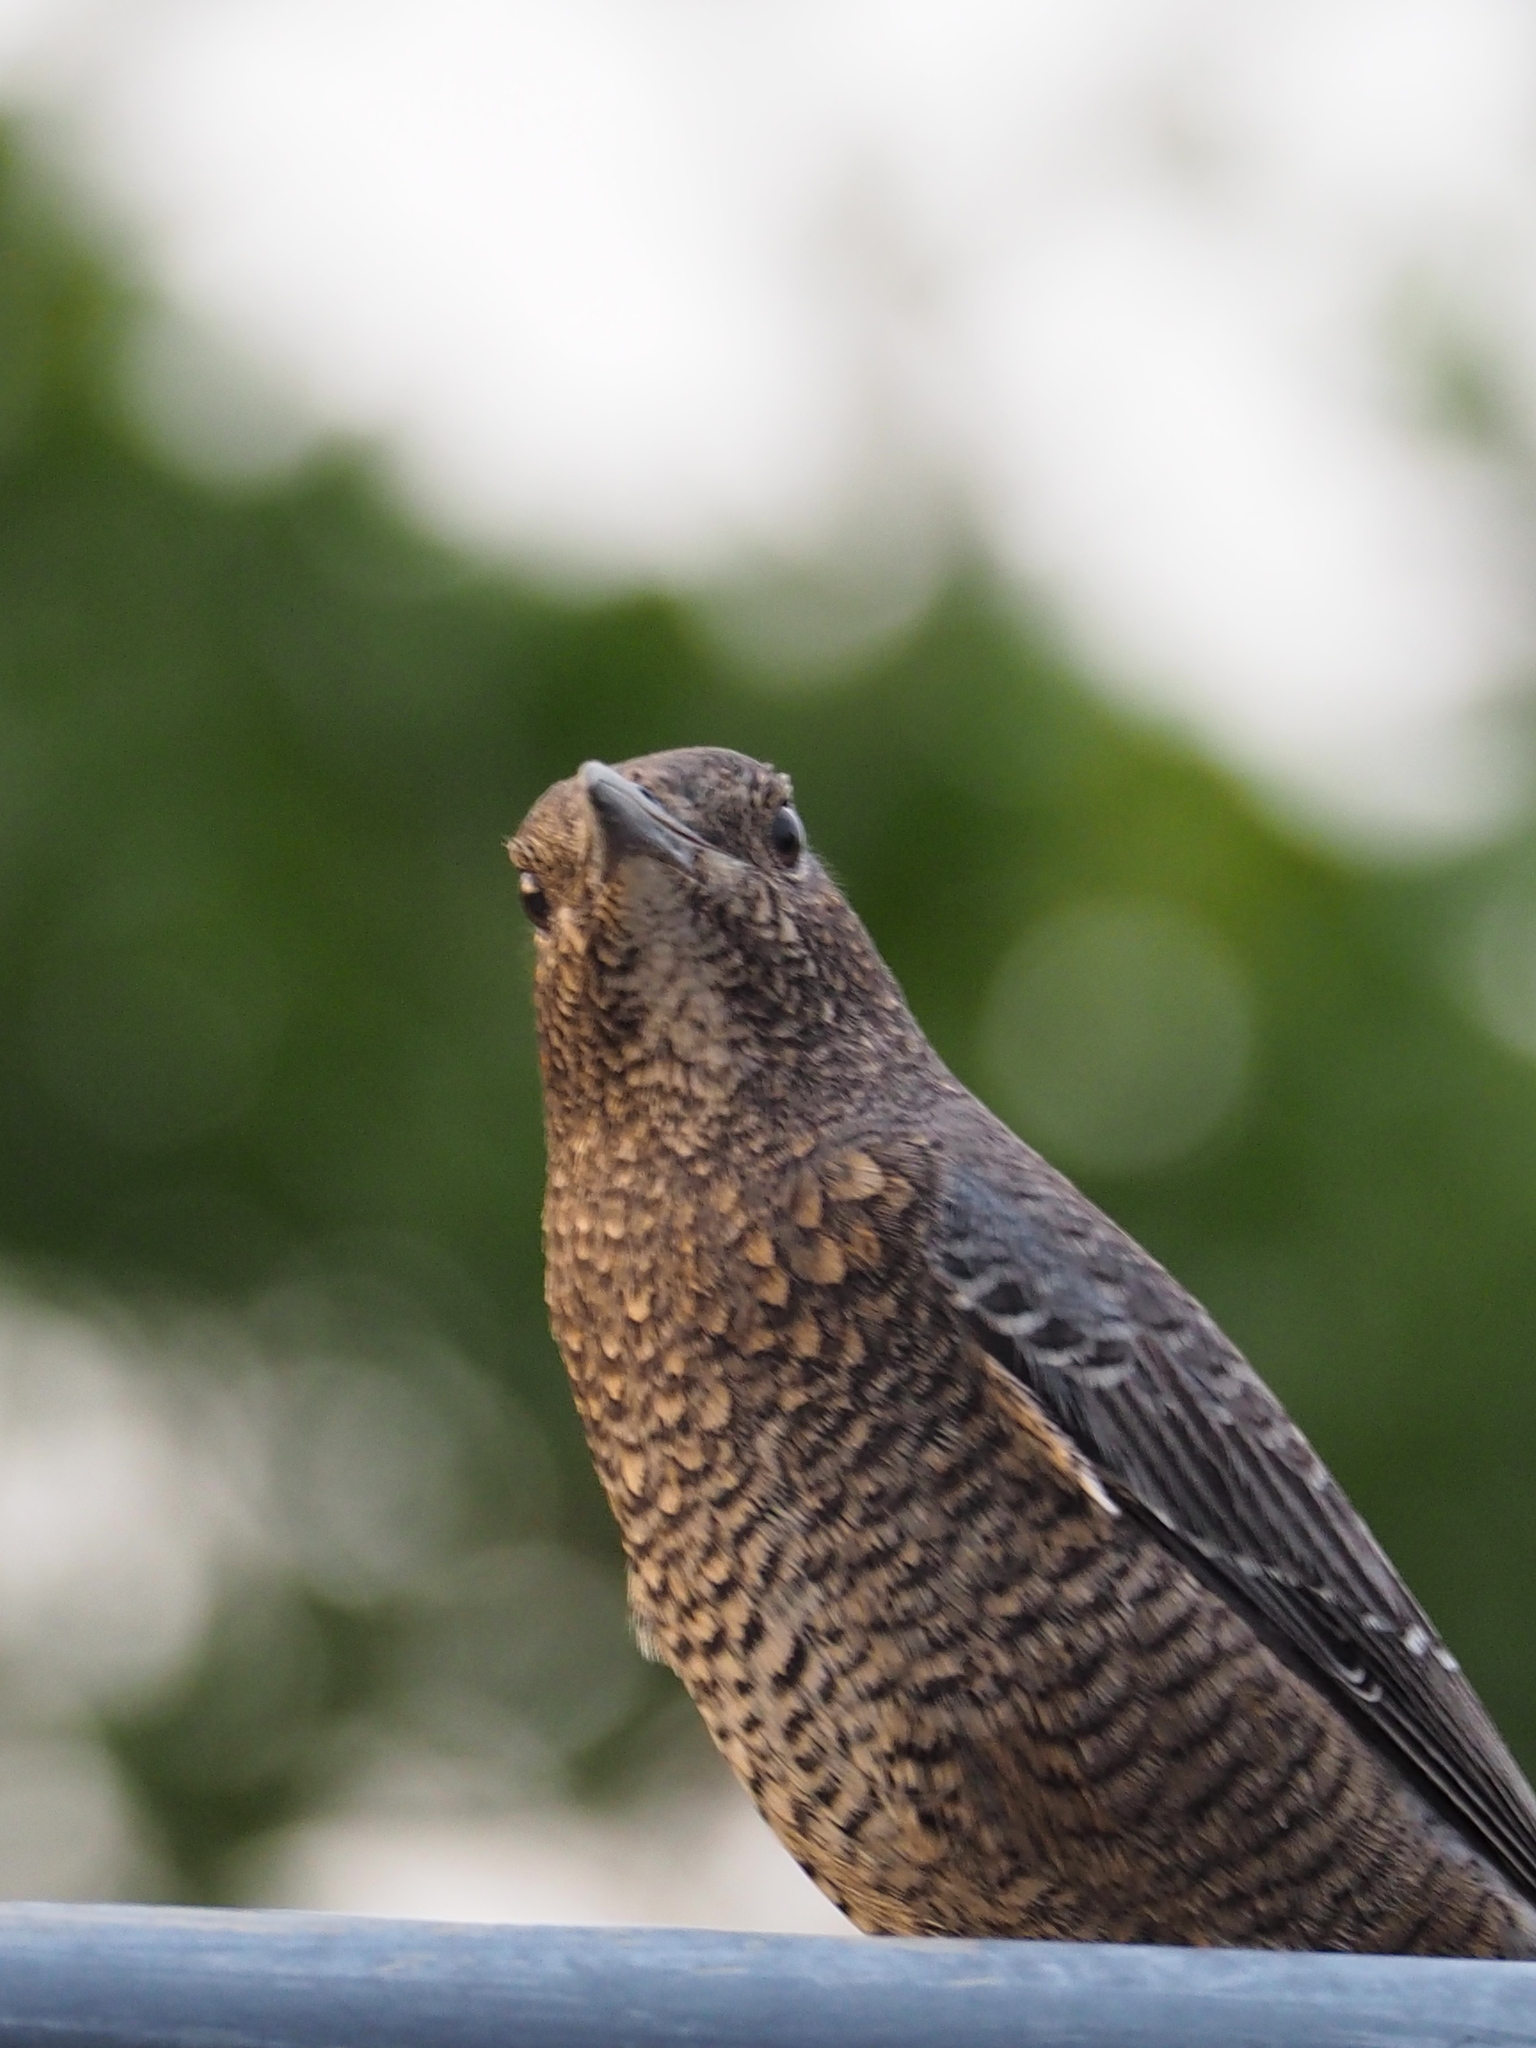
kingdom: Animalia
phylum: Chordata
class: Aves
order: Passeriformes
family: Muscicapidae
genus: Monticola
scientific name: Monticola solitarius
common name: Blue rock thrush
